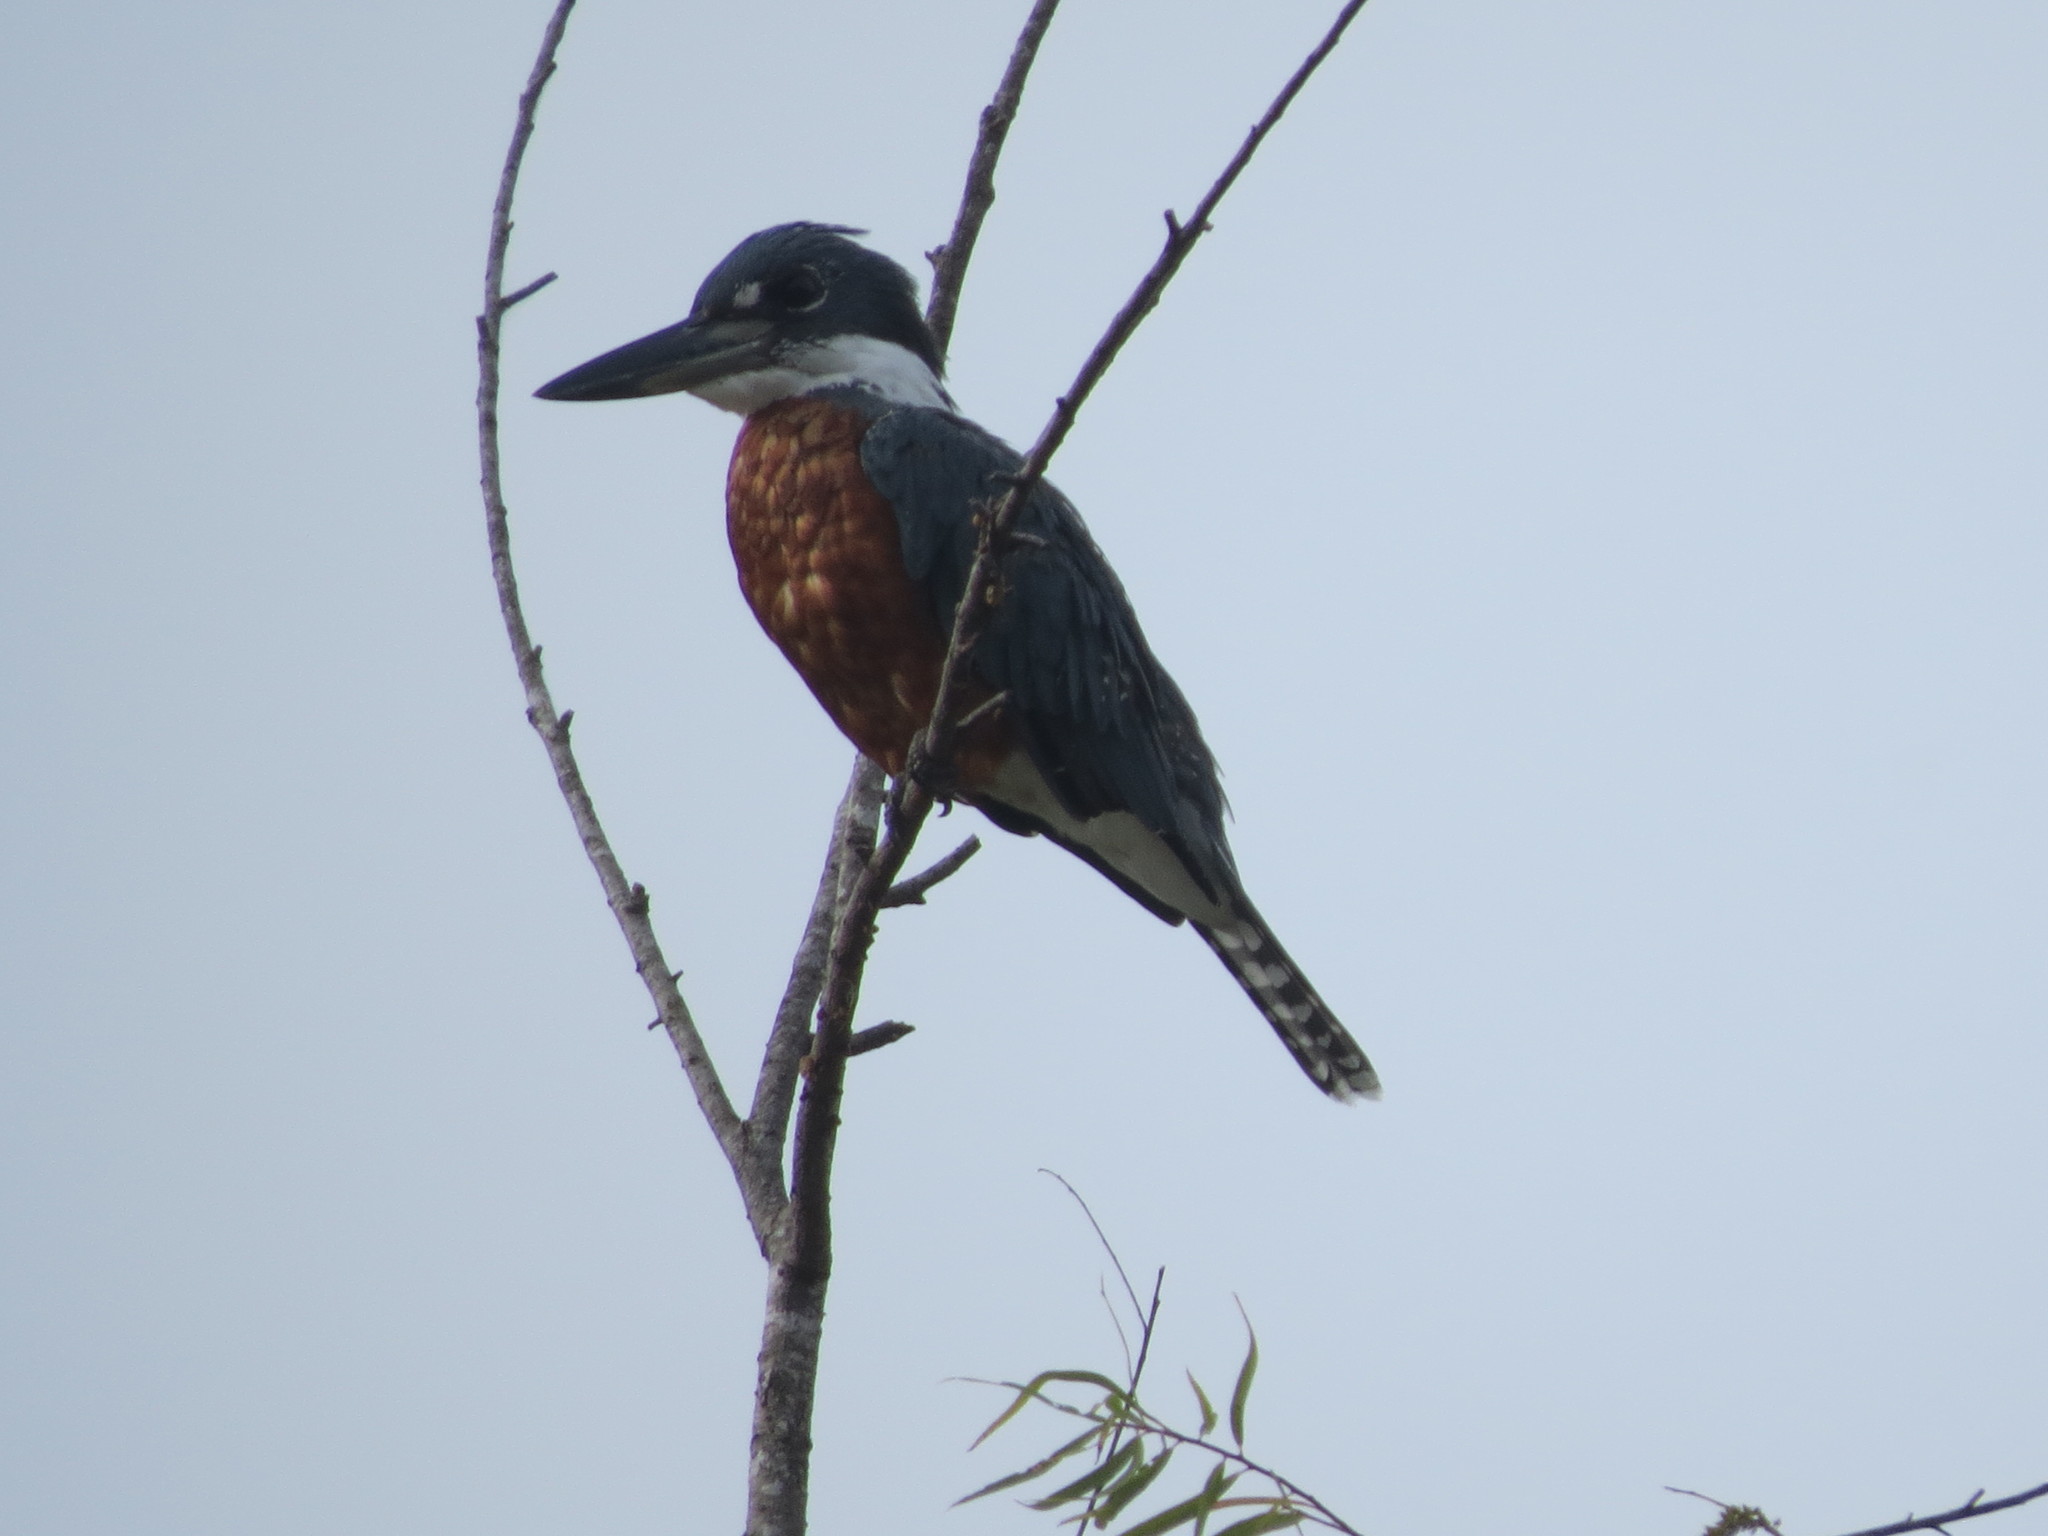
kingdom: Animalia
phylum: Chordata
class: Aves
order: Coraciiformes
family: Alcedinidae
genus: Megaceryle
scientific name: Megaceryle torquata
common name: Ringed kingfisher
